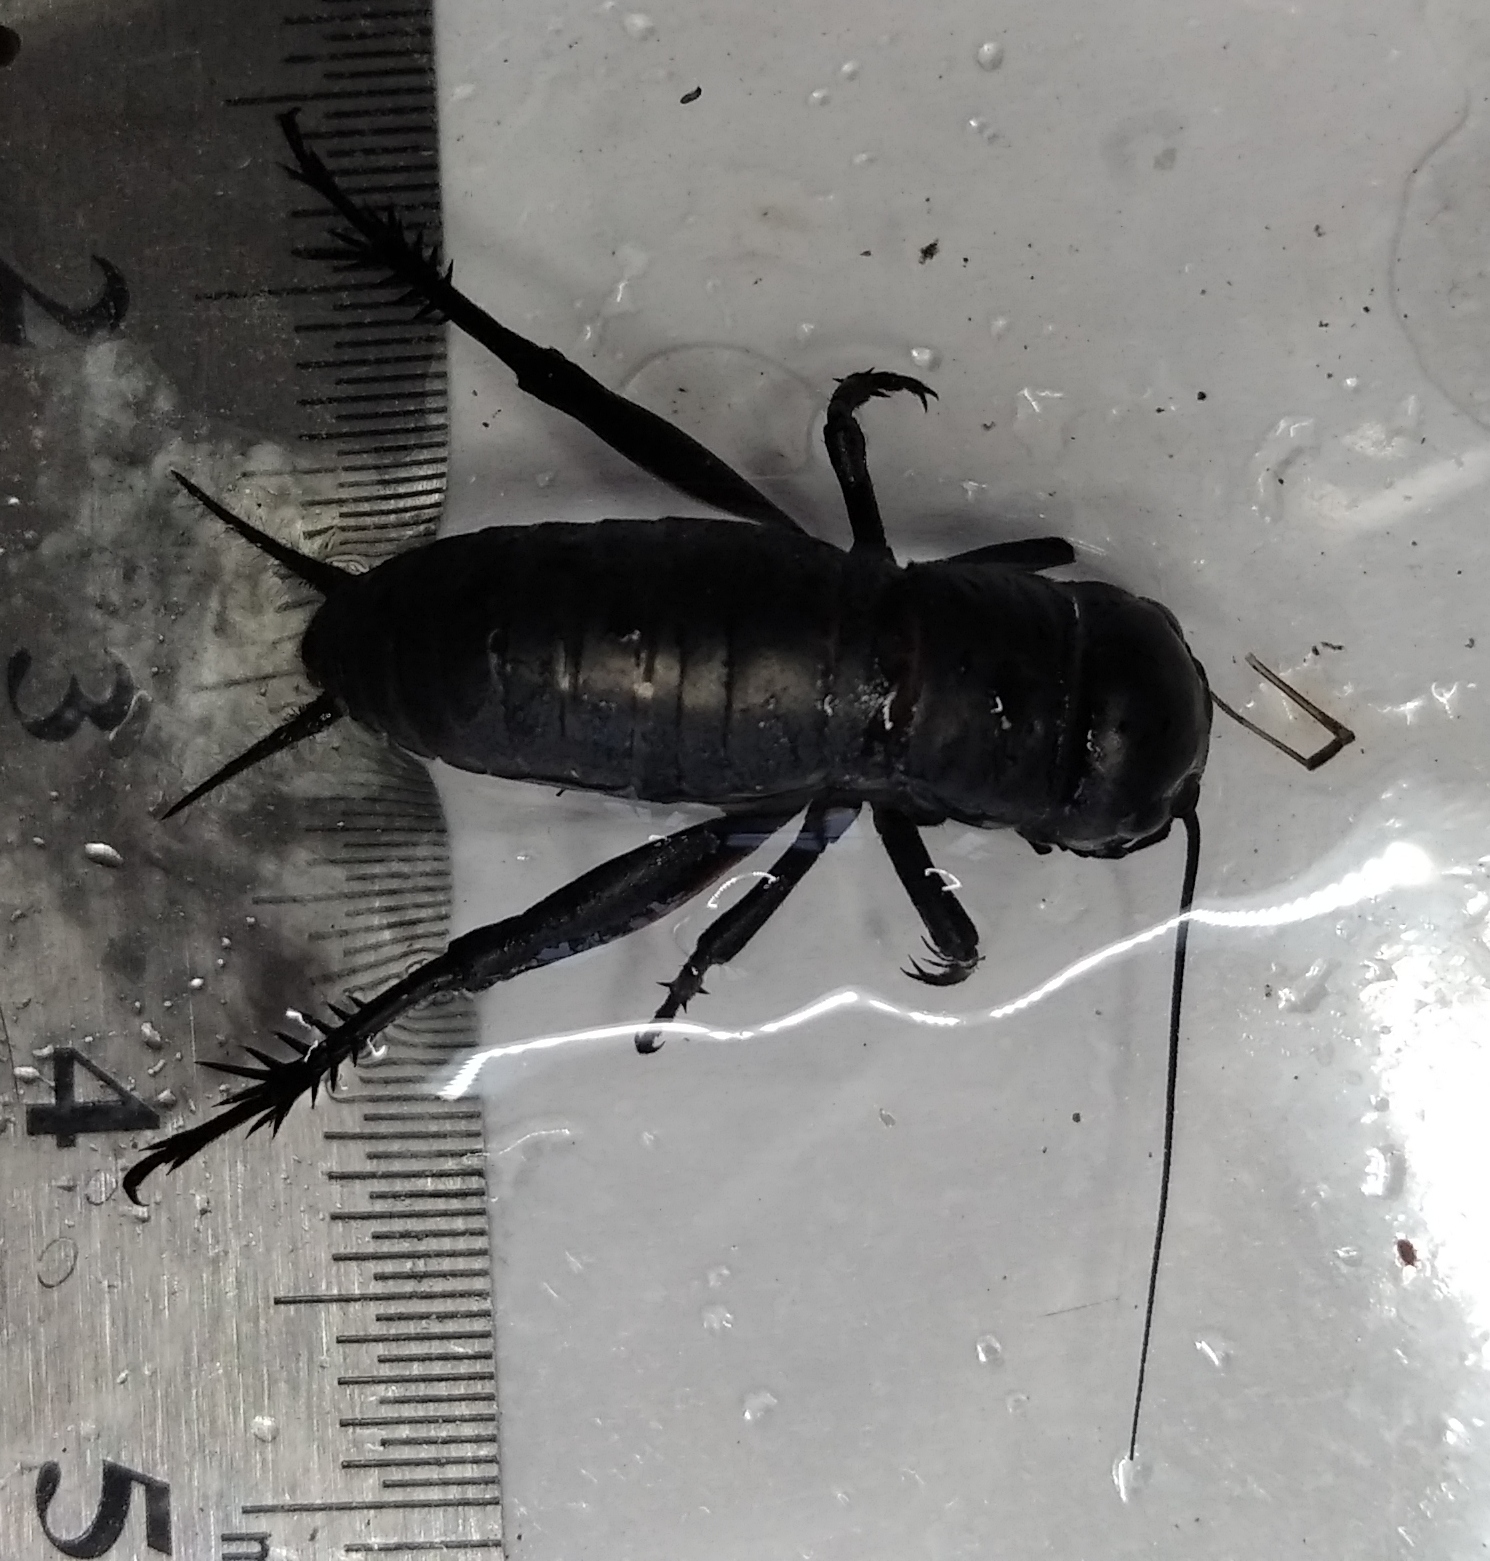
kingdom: Animalia
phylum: Arthropoda
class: Insecta
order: Orthoptera
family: Gryllidae
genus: Gryllus
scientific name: Gryllus campestris
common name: Field cricket
